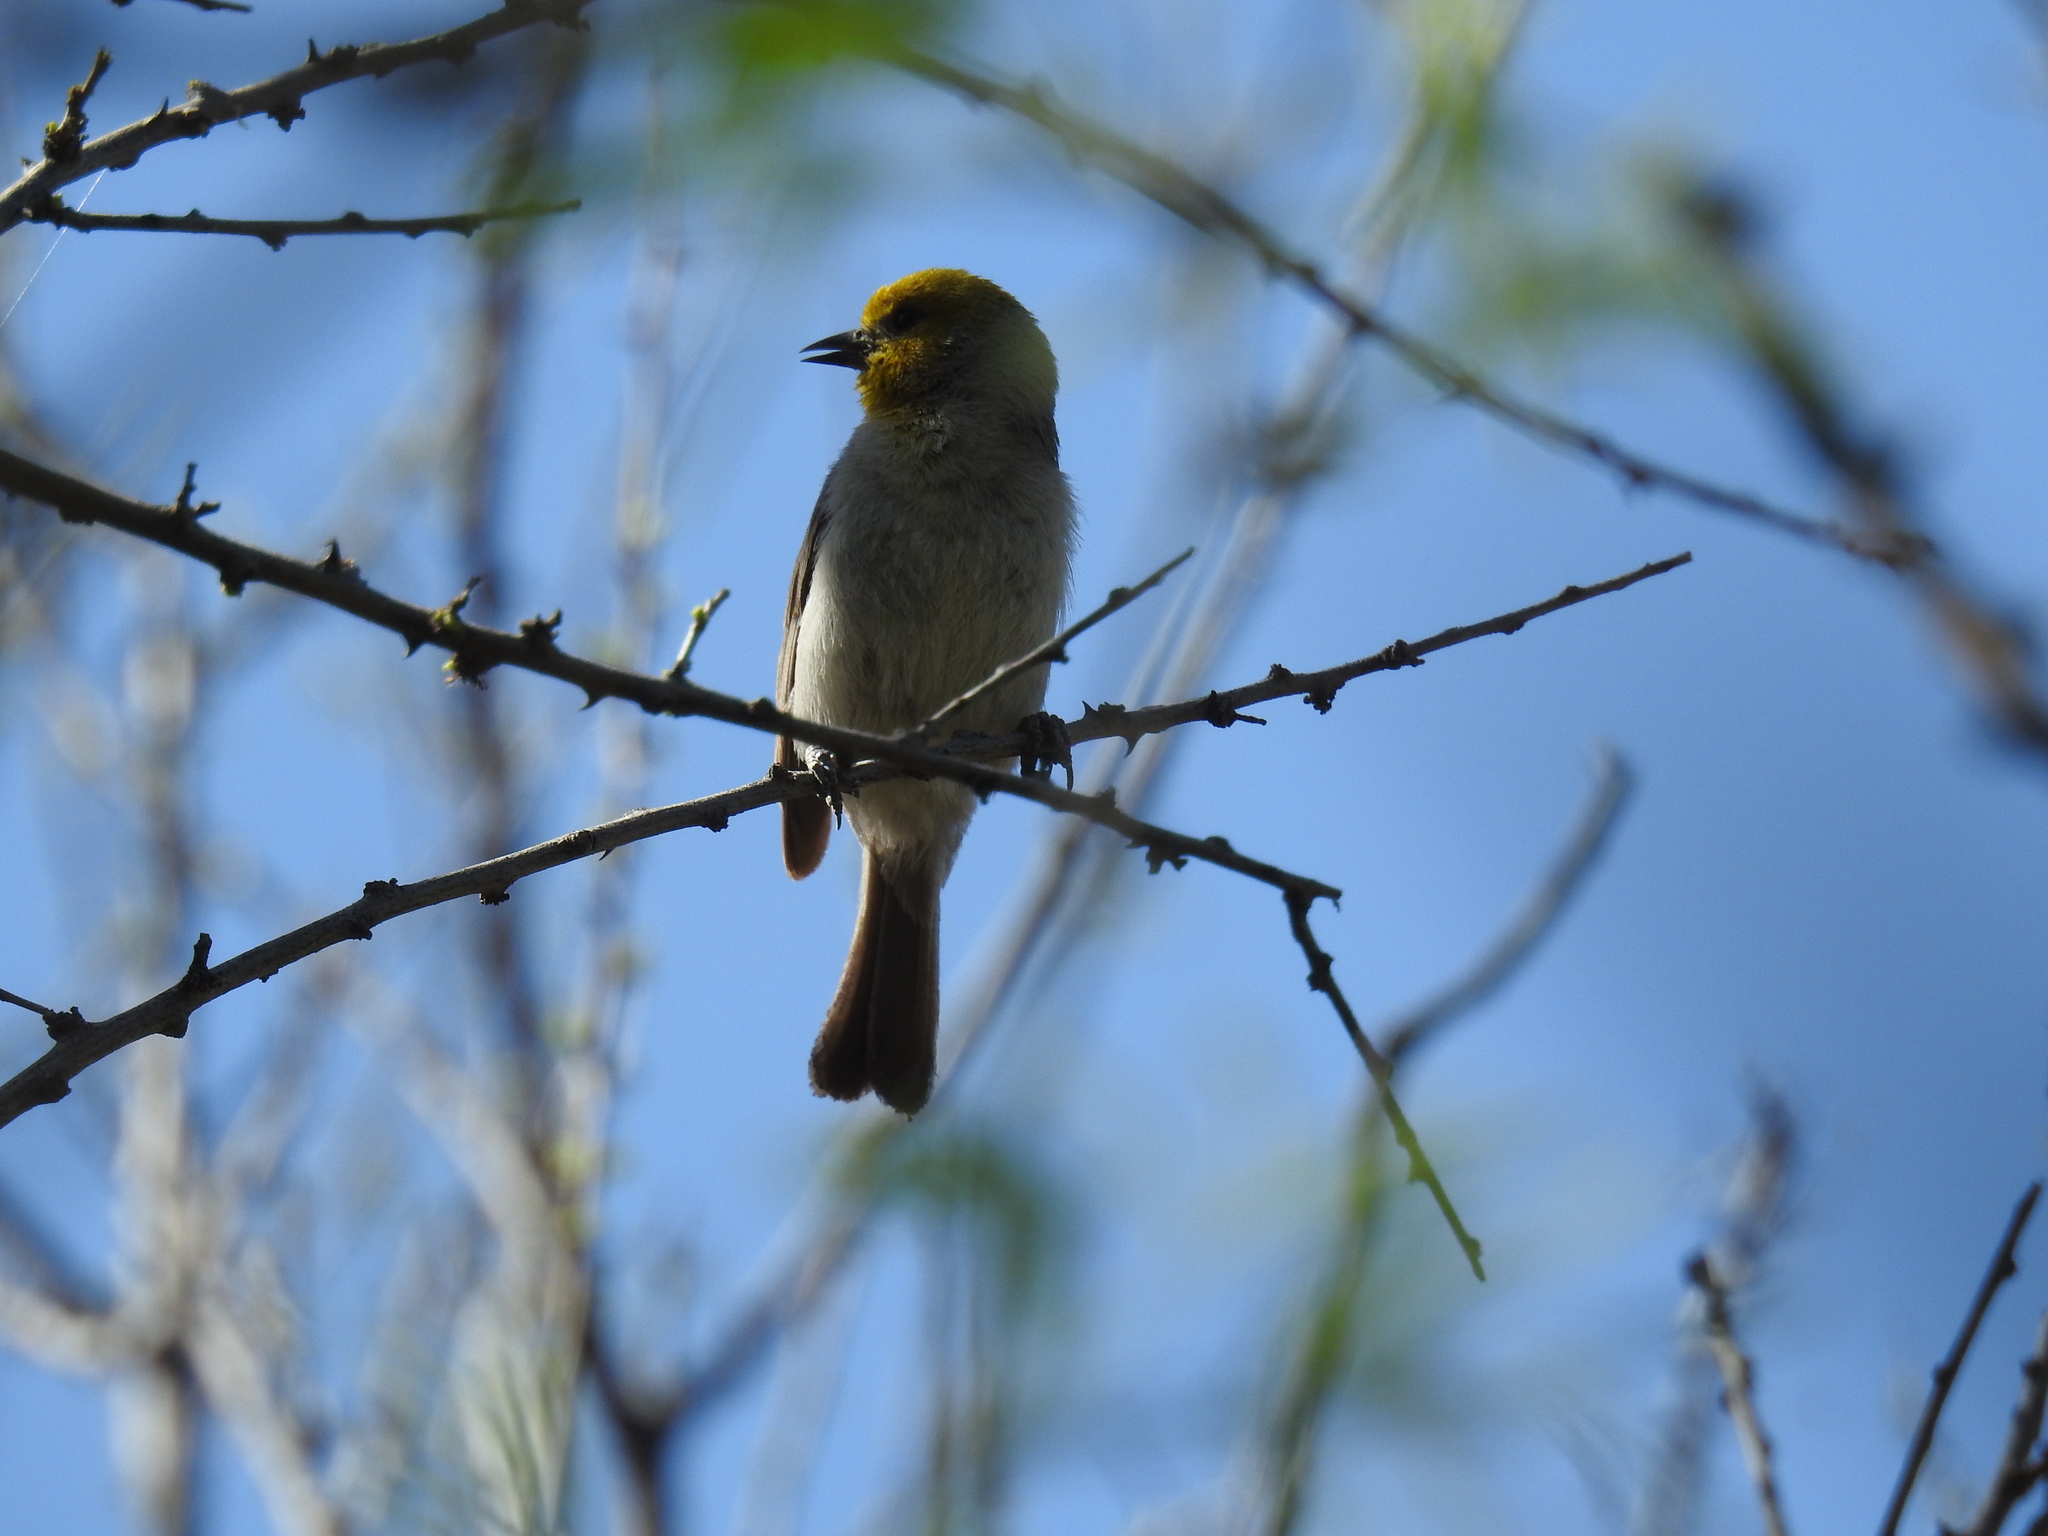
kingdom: Animalia
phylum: Chordata
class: Aves
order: Passeriformes
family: Remizidae
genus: Auriparus
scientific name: Auriparus flaviceps
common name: Verdin
